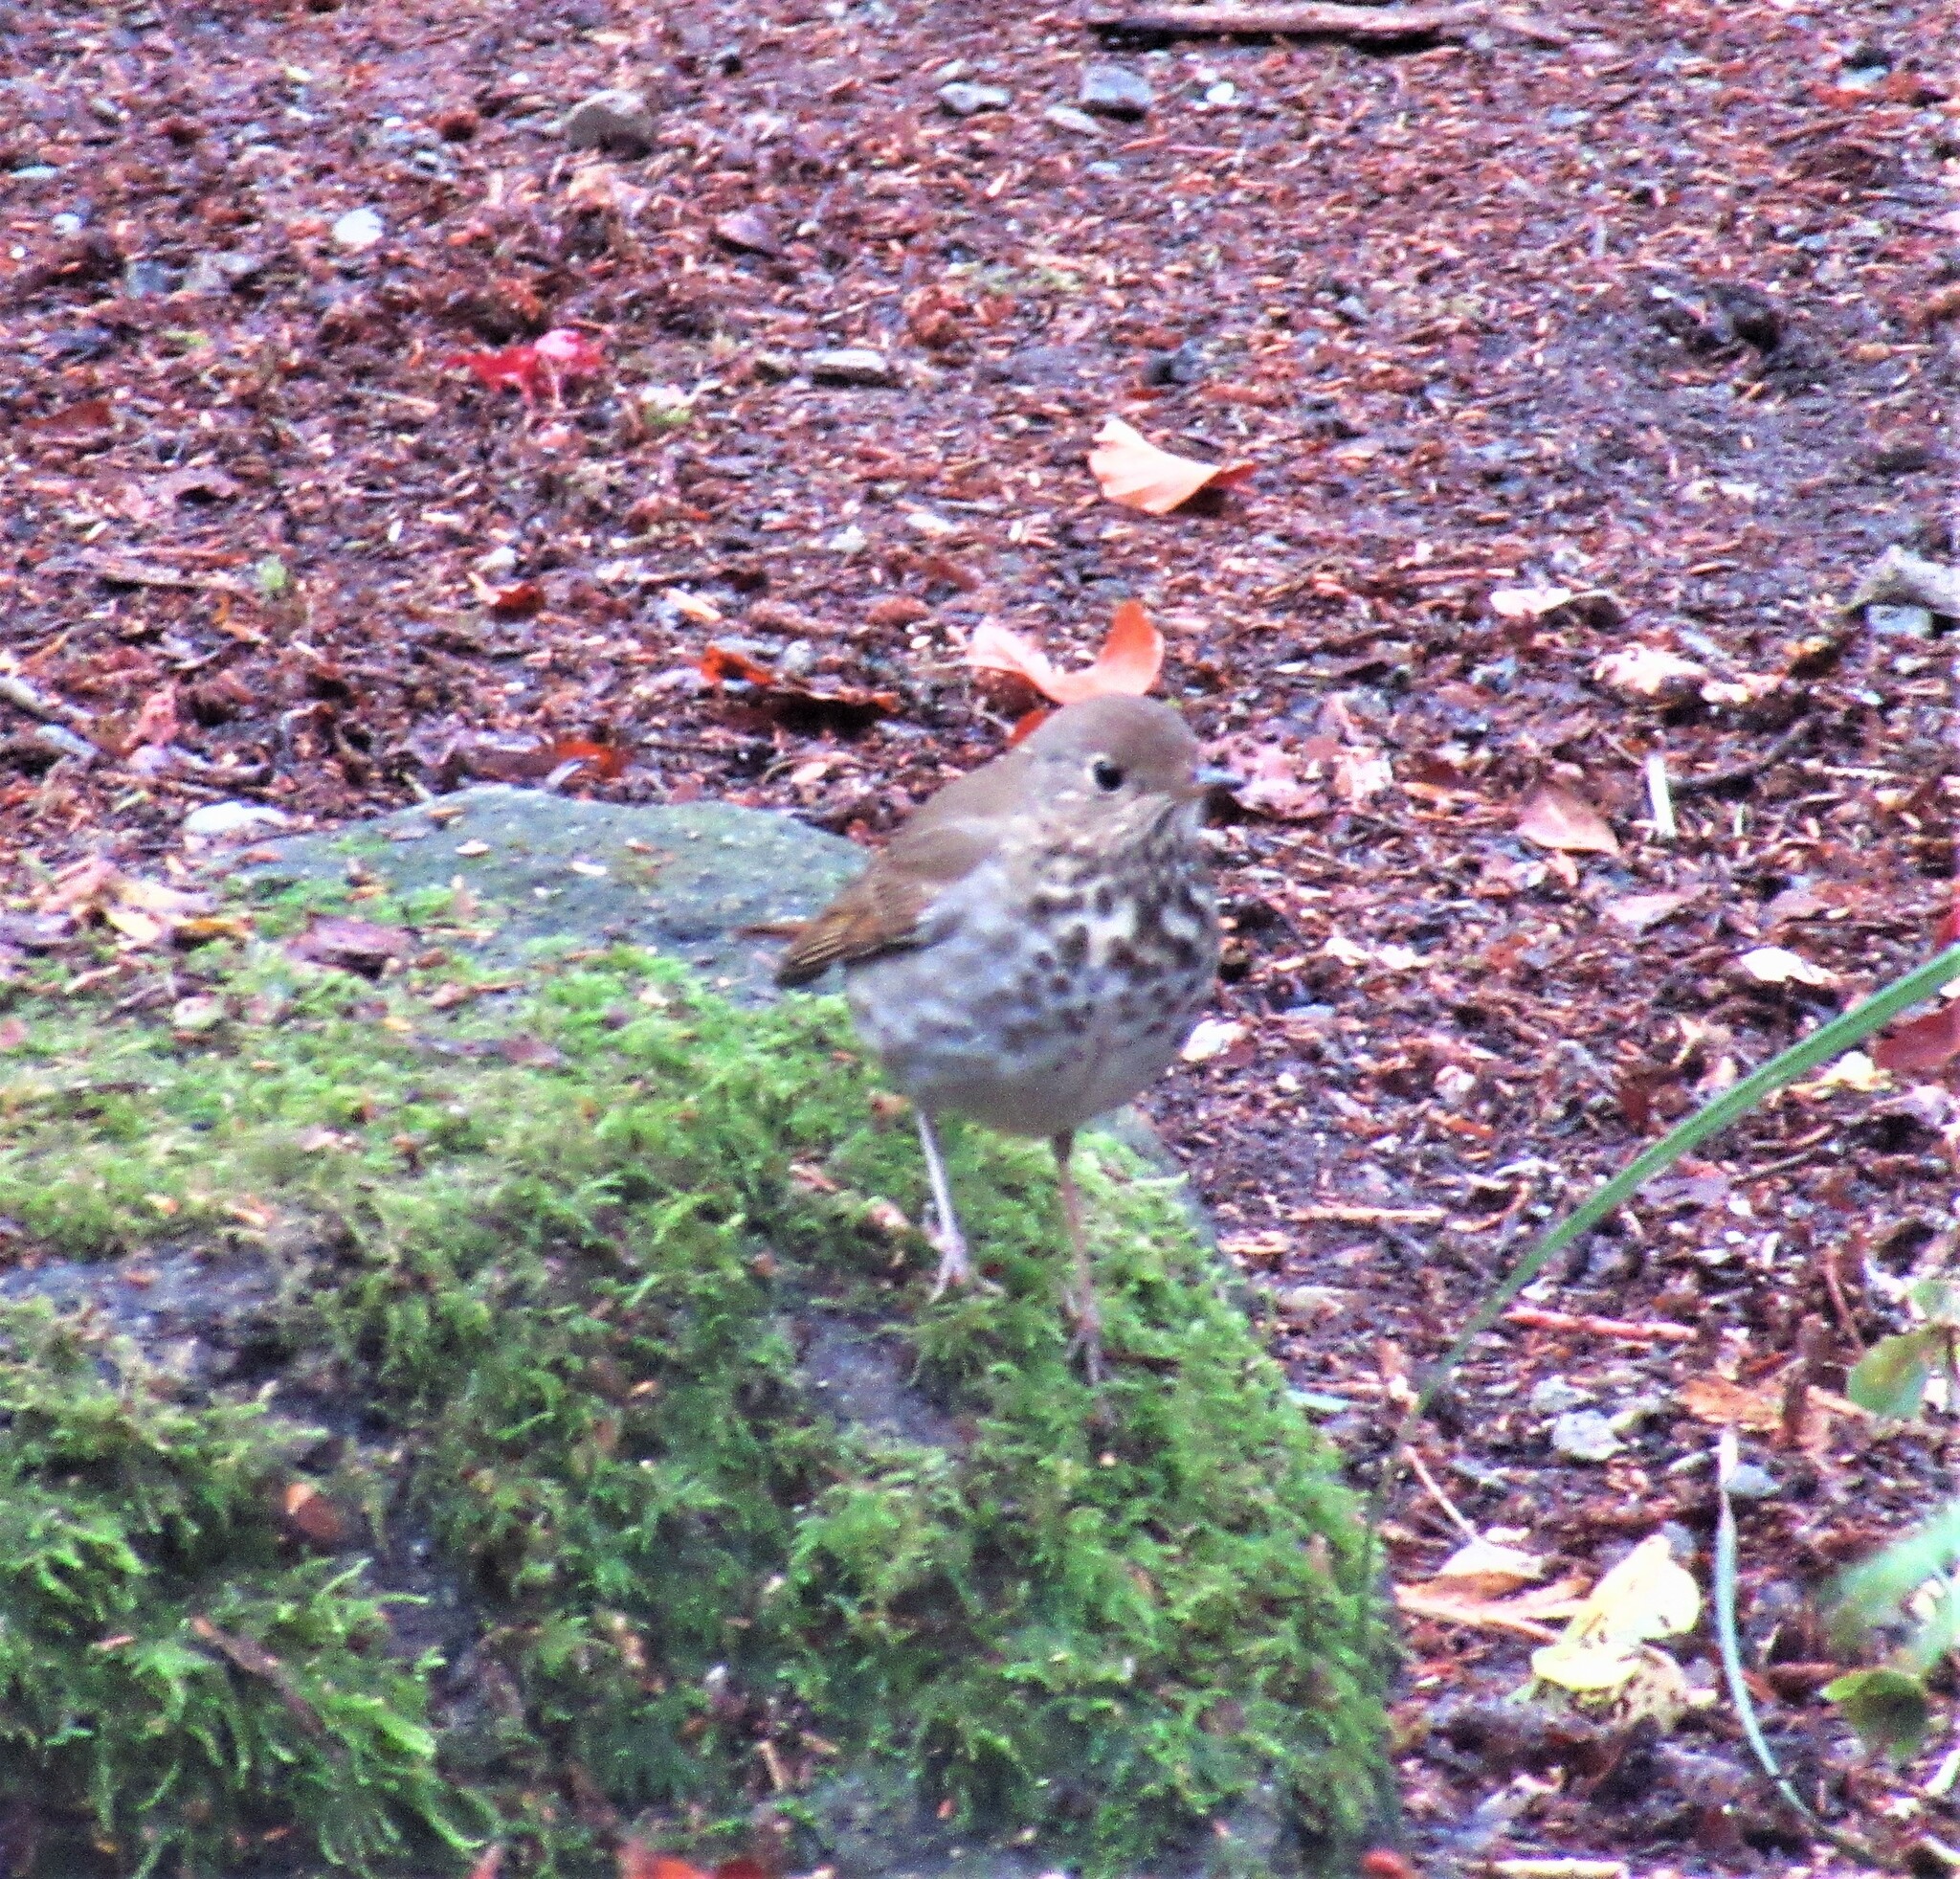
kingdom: Animalia
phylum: Chordata
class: Aves
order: Passeriformes
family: Turdidae
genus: Catharus
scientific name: Catharus guttatus
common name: Hermit thrush
